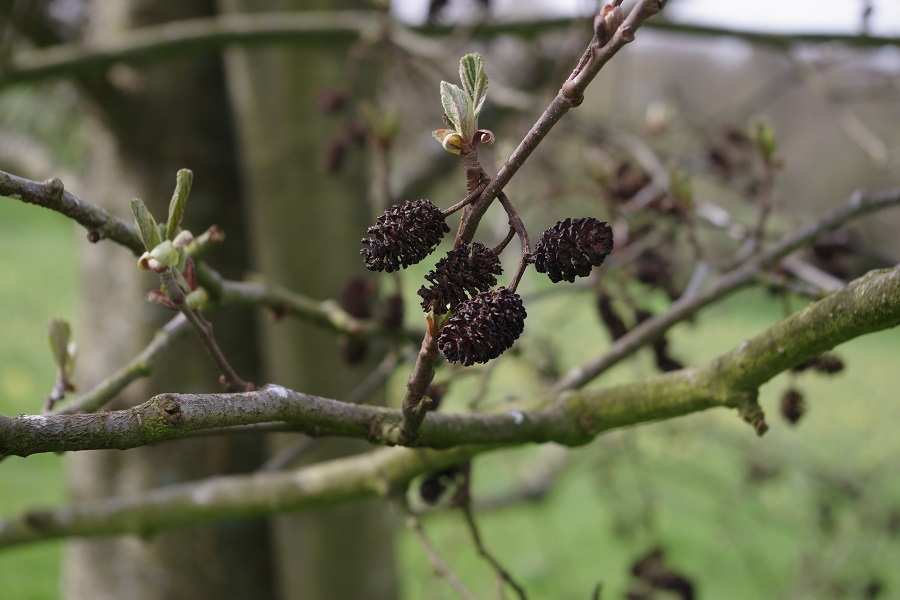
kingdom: Plantae
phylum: Tracheophyta
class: Magnoliopsida
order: Fagales
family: Betulaceae
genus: Alnus
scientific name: Alnus glutinosa
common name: Black alder
